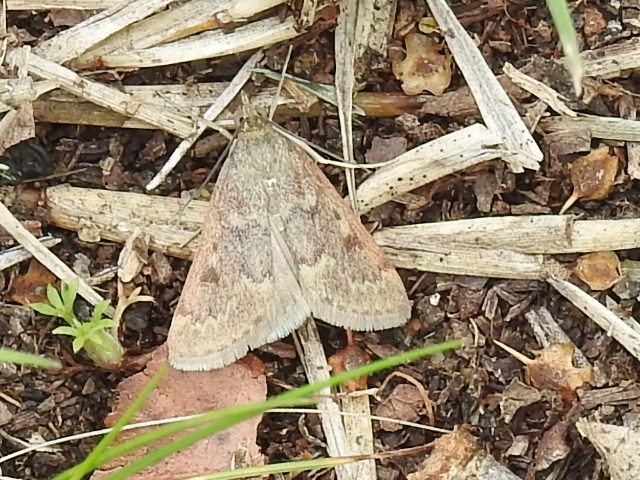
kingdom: Animalia
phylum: Arthropoda
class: Insecta
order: Lepidoptera
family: Crambidae
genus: Achyra
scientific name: Achyra rantalis
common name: Garden webworm
